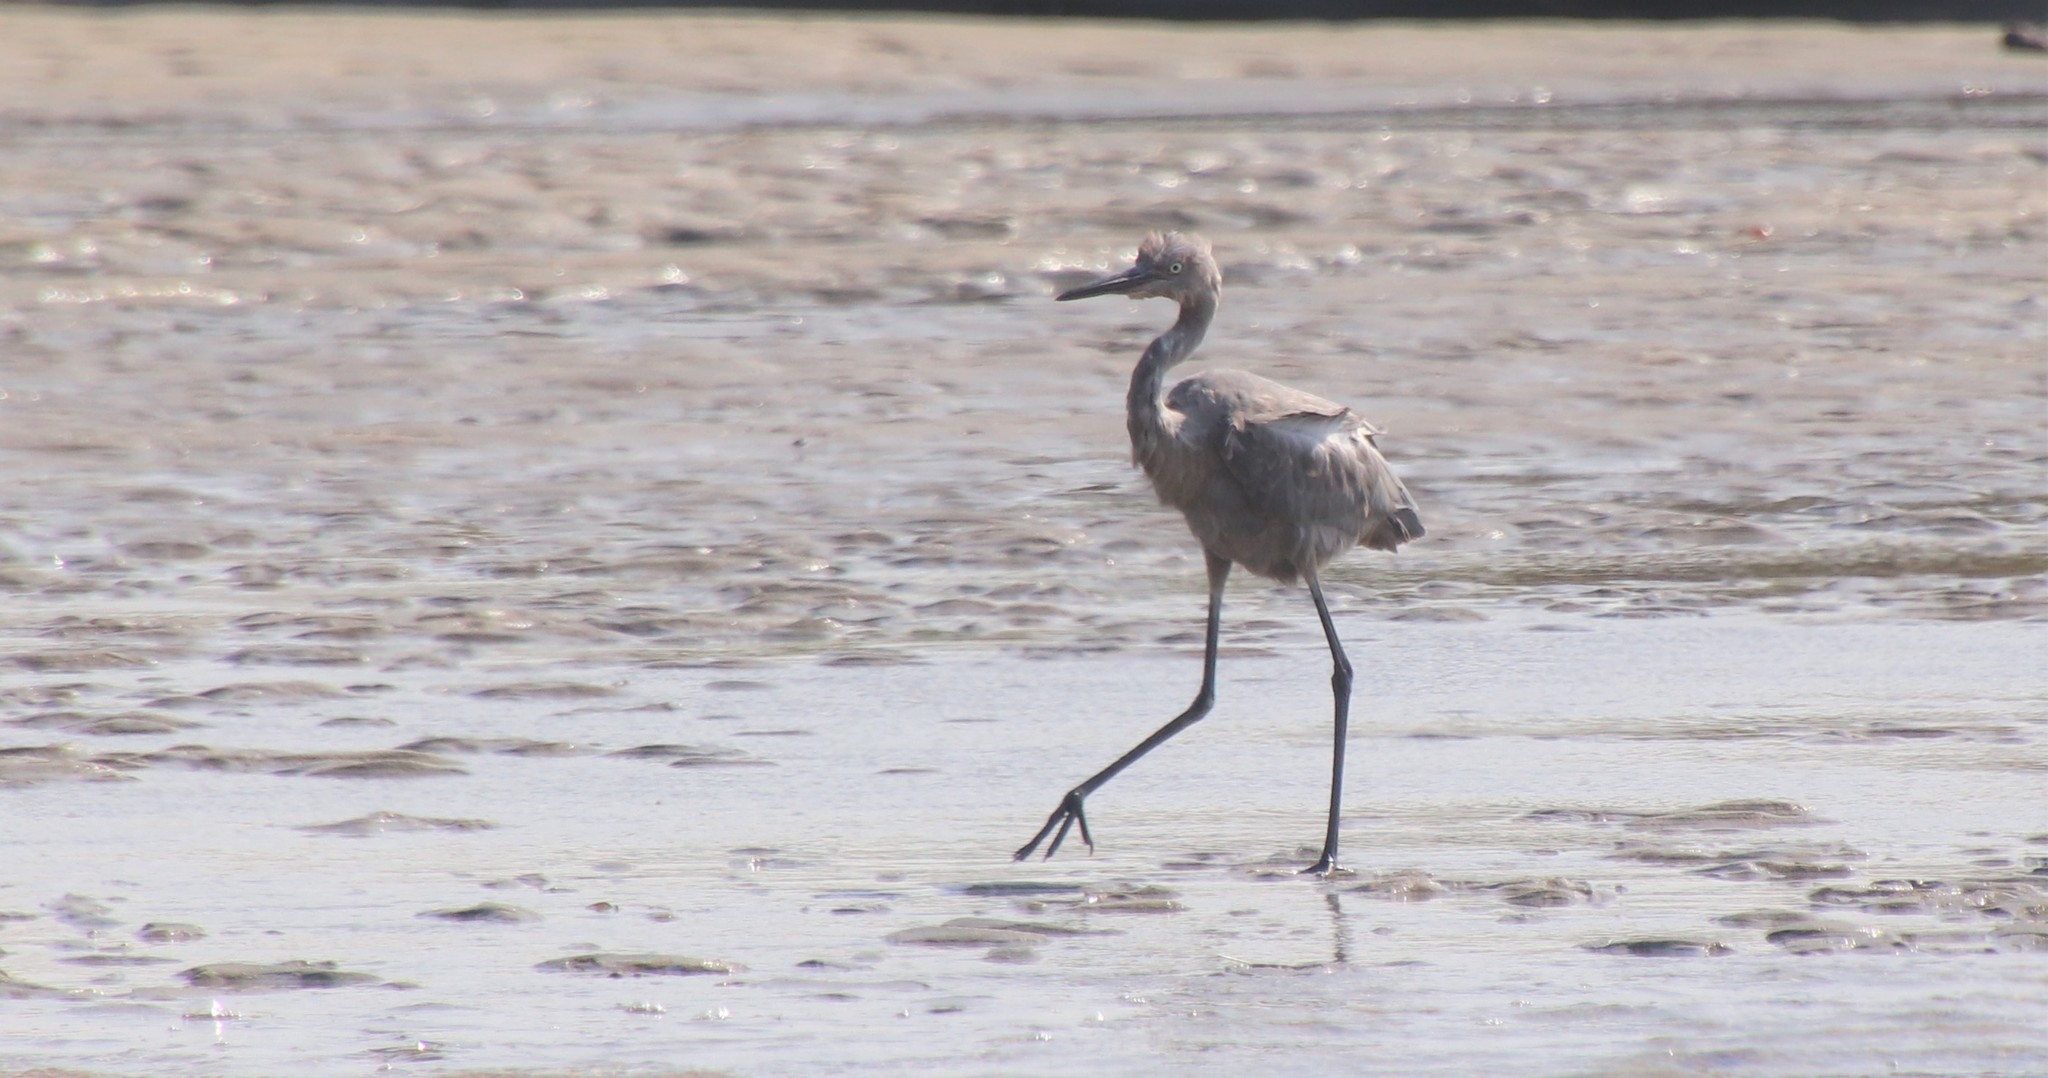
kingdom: Animalia
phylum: Chordata
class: Aves
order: Pelecaniformes
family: Ardeidae
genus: Egretta
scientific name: Egretta rufescens
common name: Reddish egret
